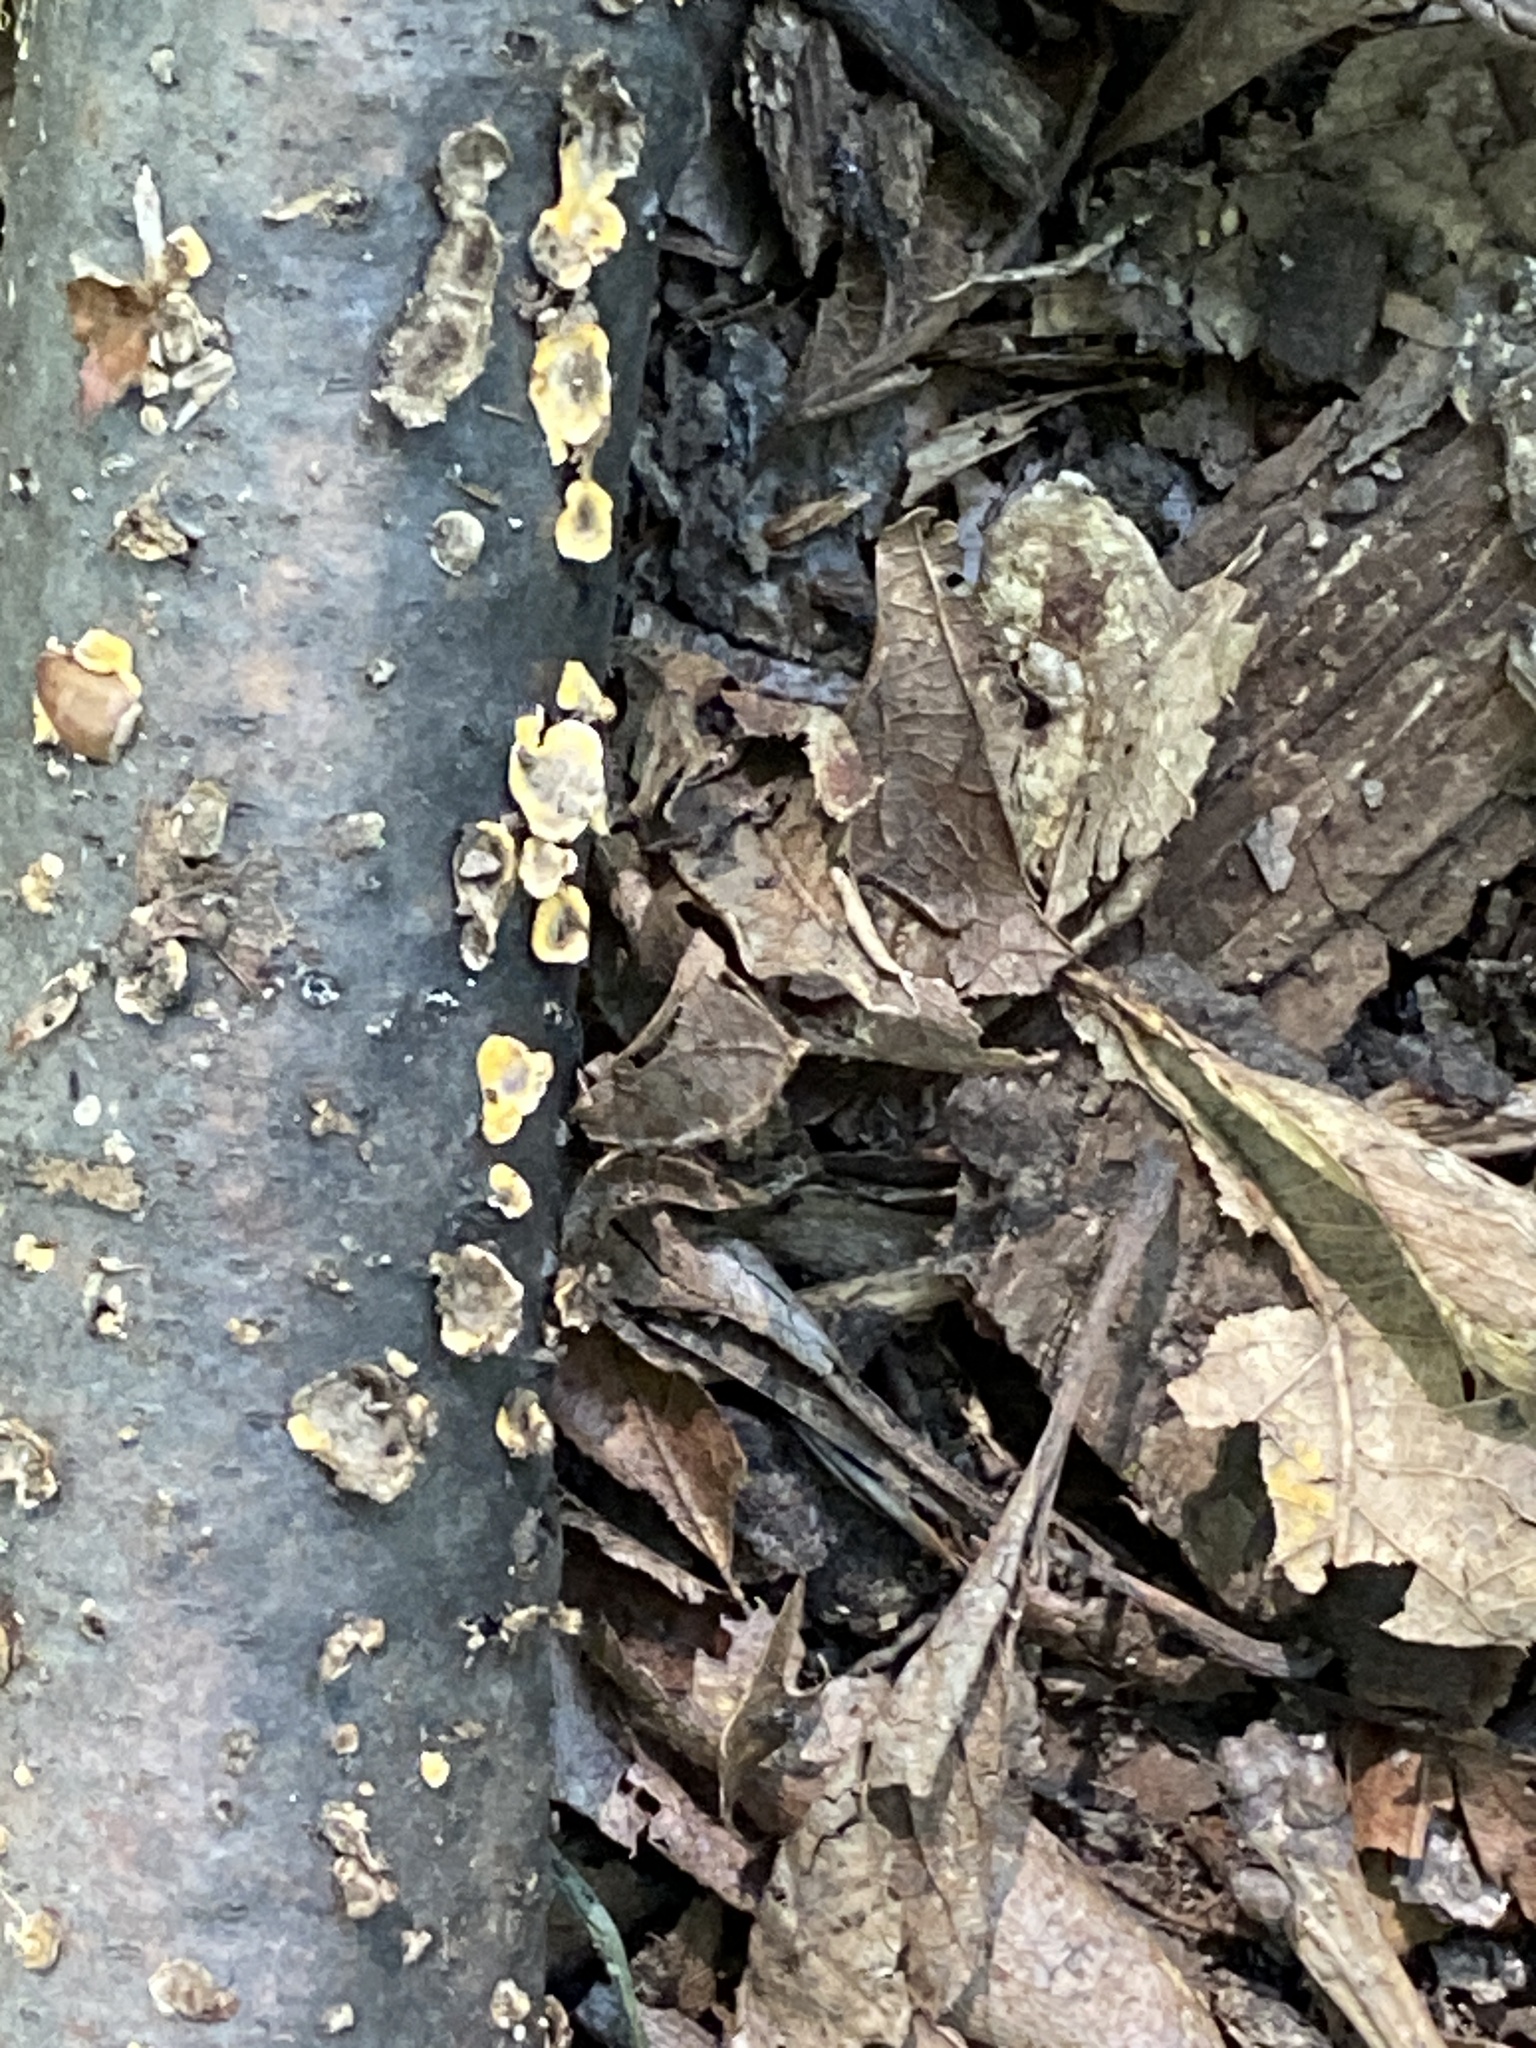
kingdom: Fungi
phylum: Basidiomycota
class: Agaricomycetes
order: Russulales
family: Stereaceae
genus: Stereum
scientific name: Stereum complicatum
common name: Crowded parchment
